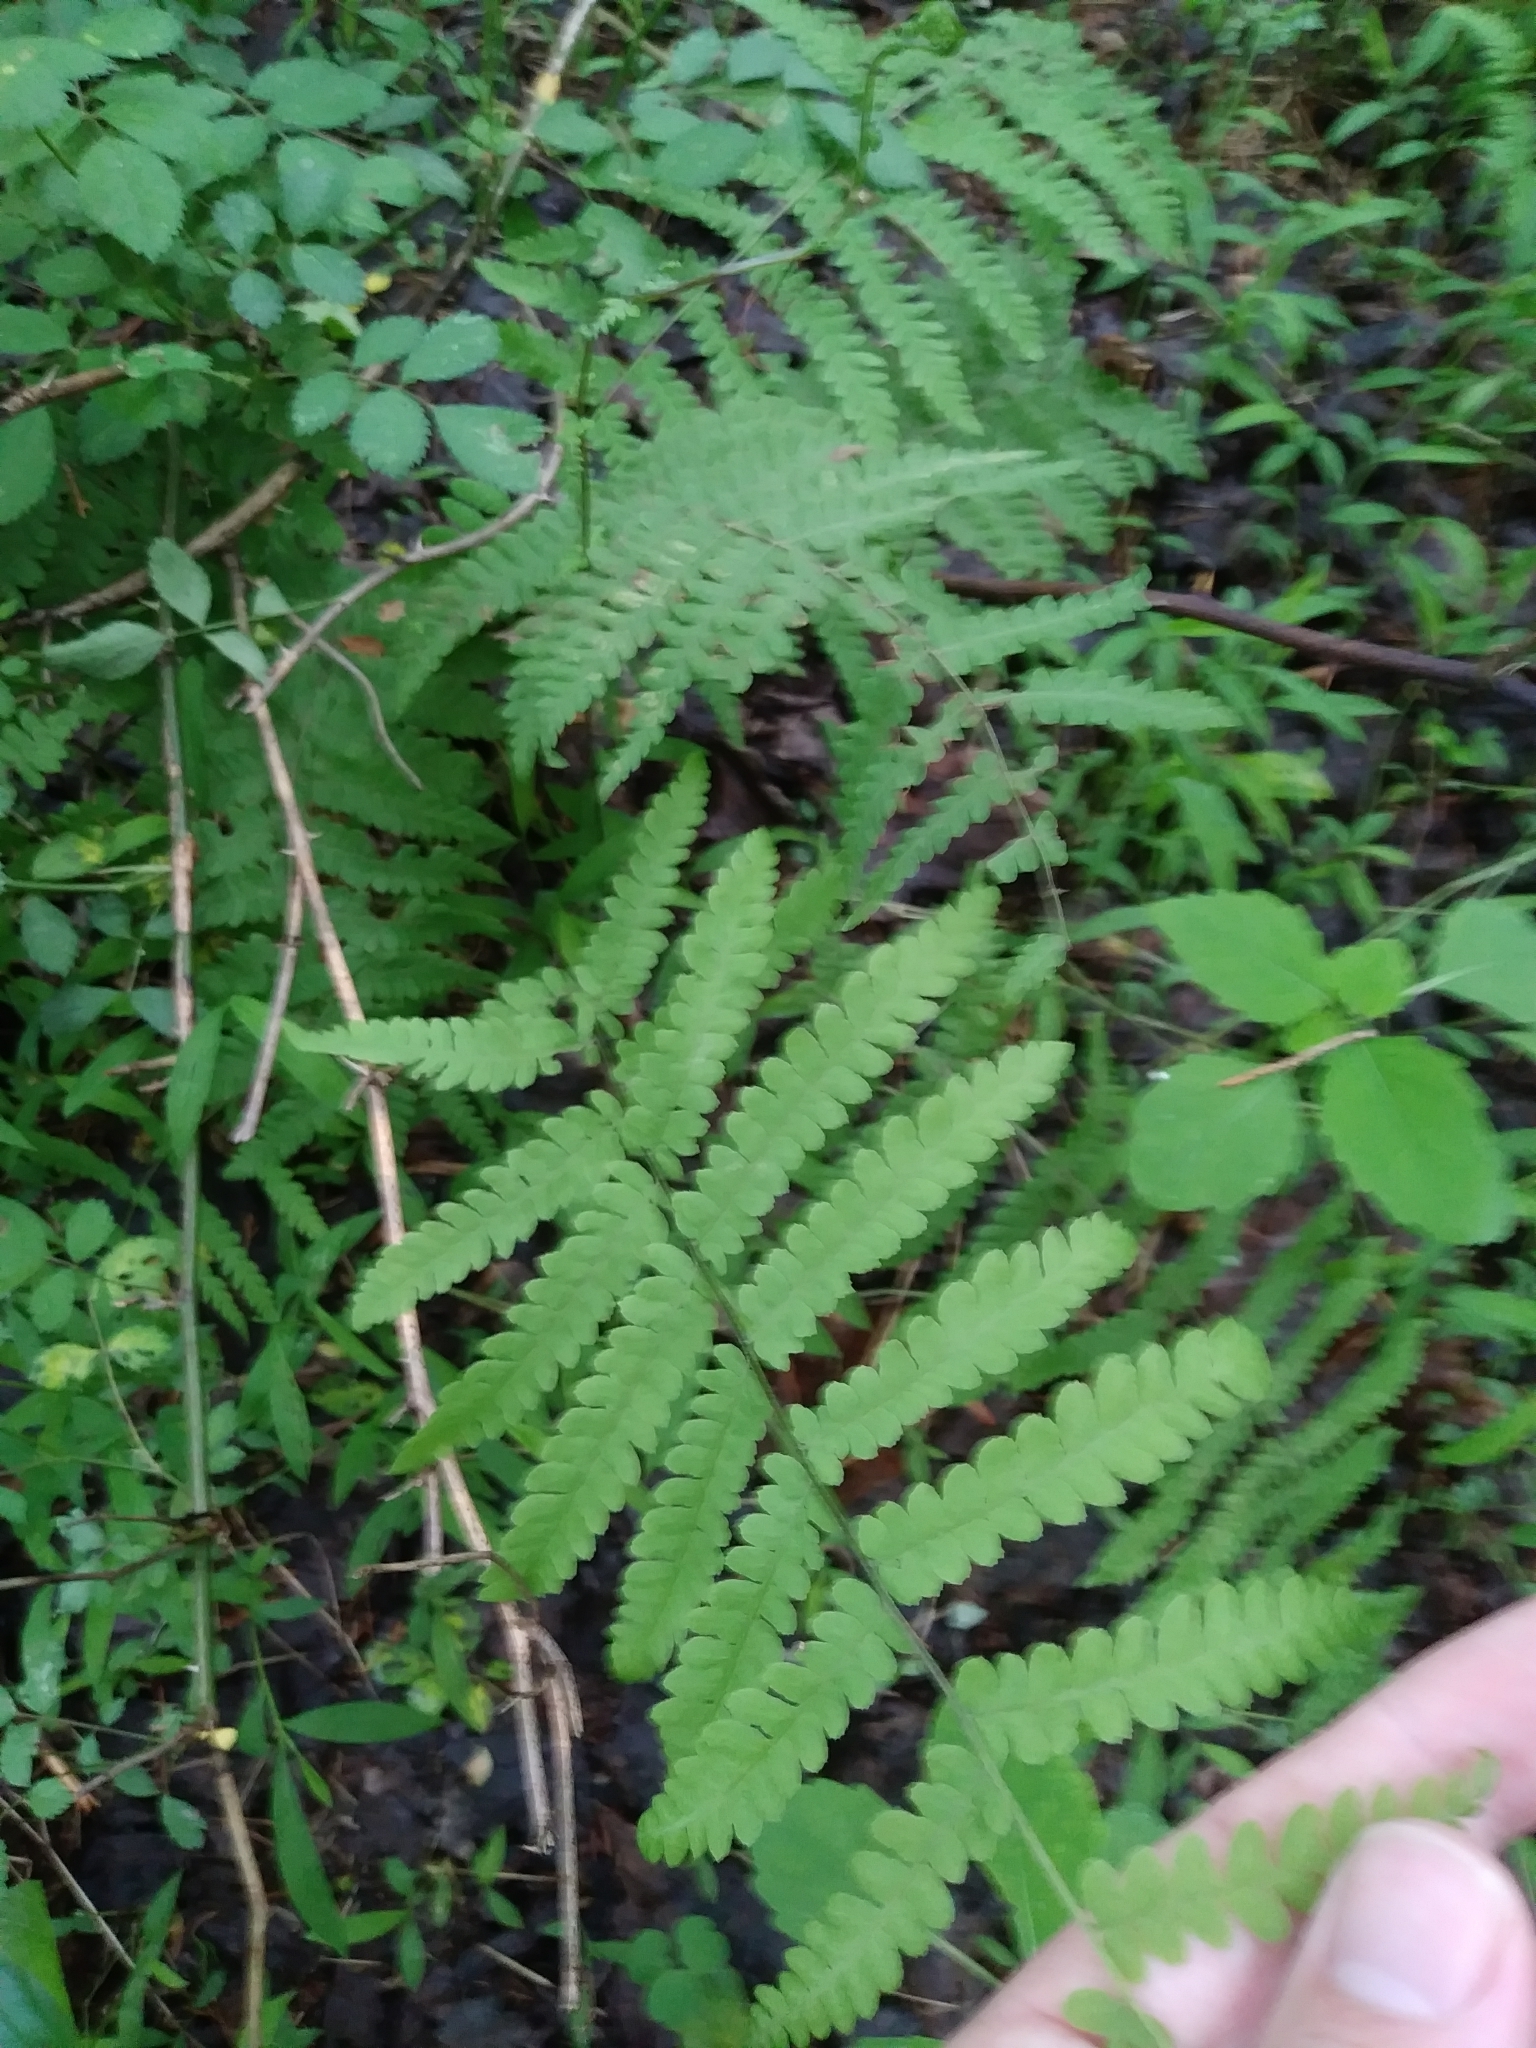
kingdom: Plantae
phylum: Tracheophyta
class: Polypodiopsida
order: Polypodiales
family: Thelypteridaceae
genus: Thelypteris
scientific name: Thelypteris palustris
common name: Marsh fern
